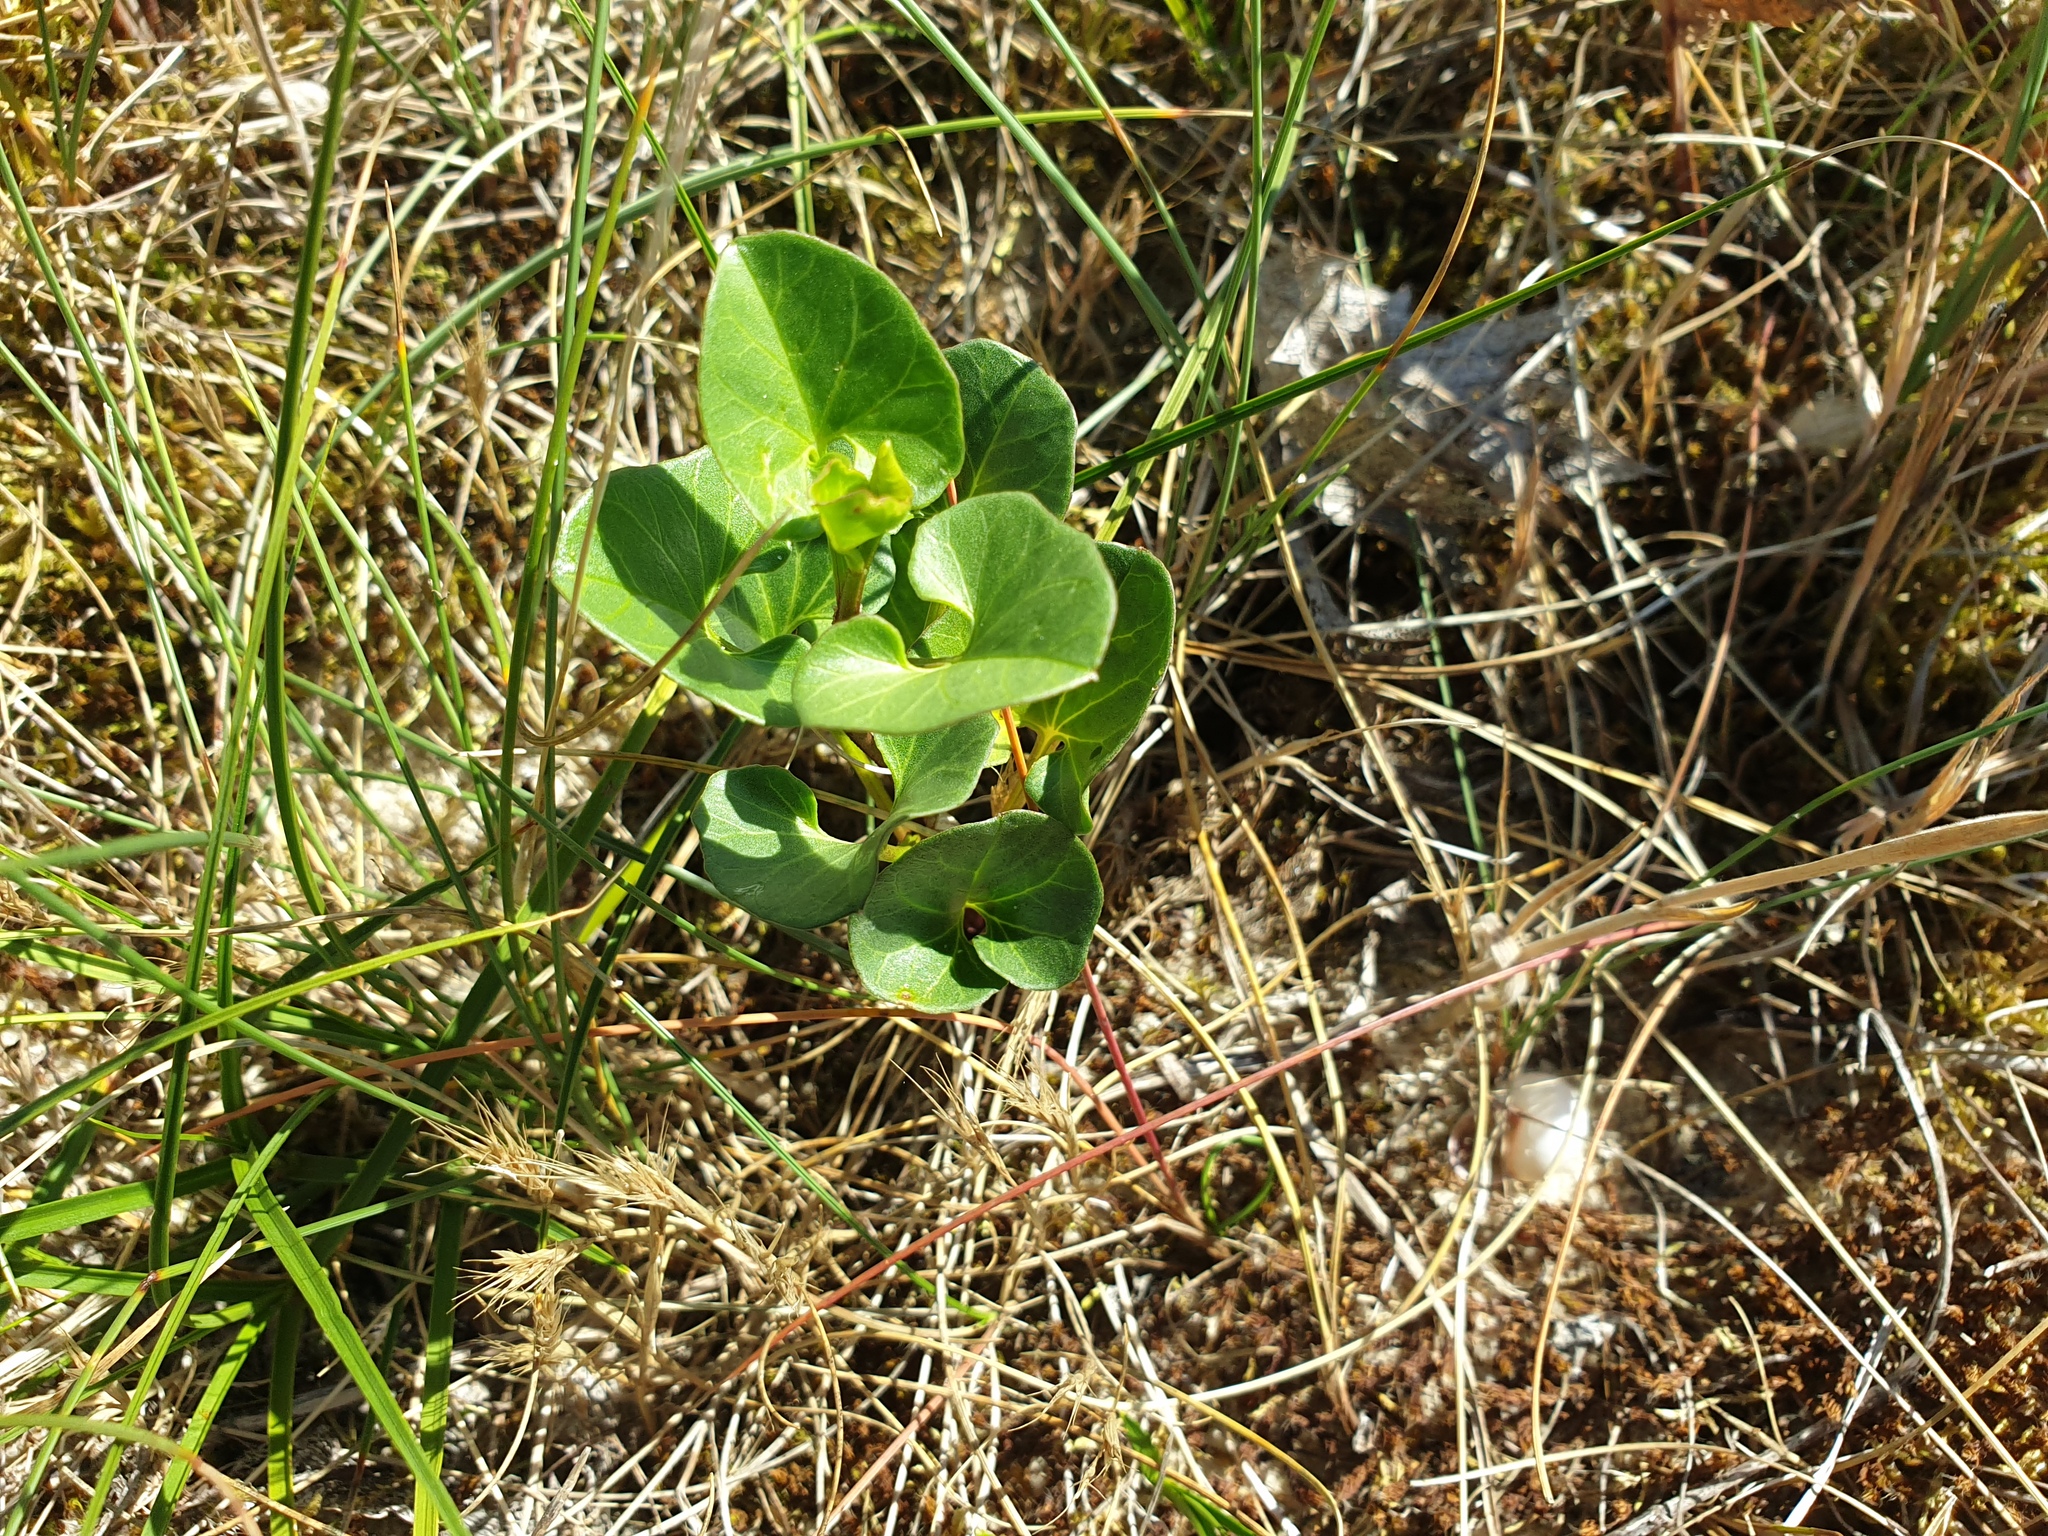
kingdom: Plantae
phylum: Tracheophyta
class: Magnoliopsida
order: Solanales
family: Convolvulaceae
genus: Calystegia
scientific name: Calystegia soldanella
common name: Sea bindweed
